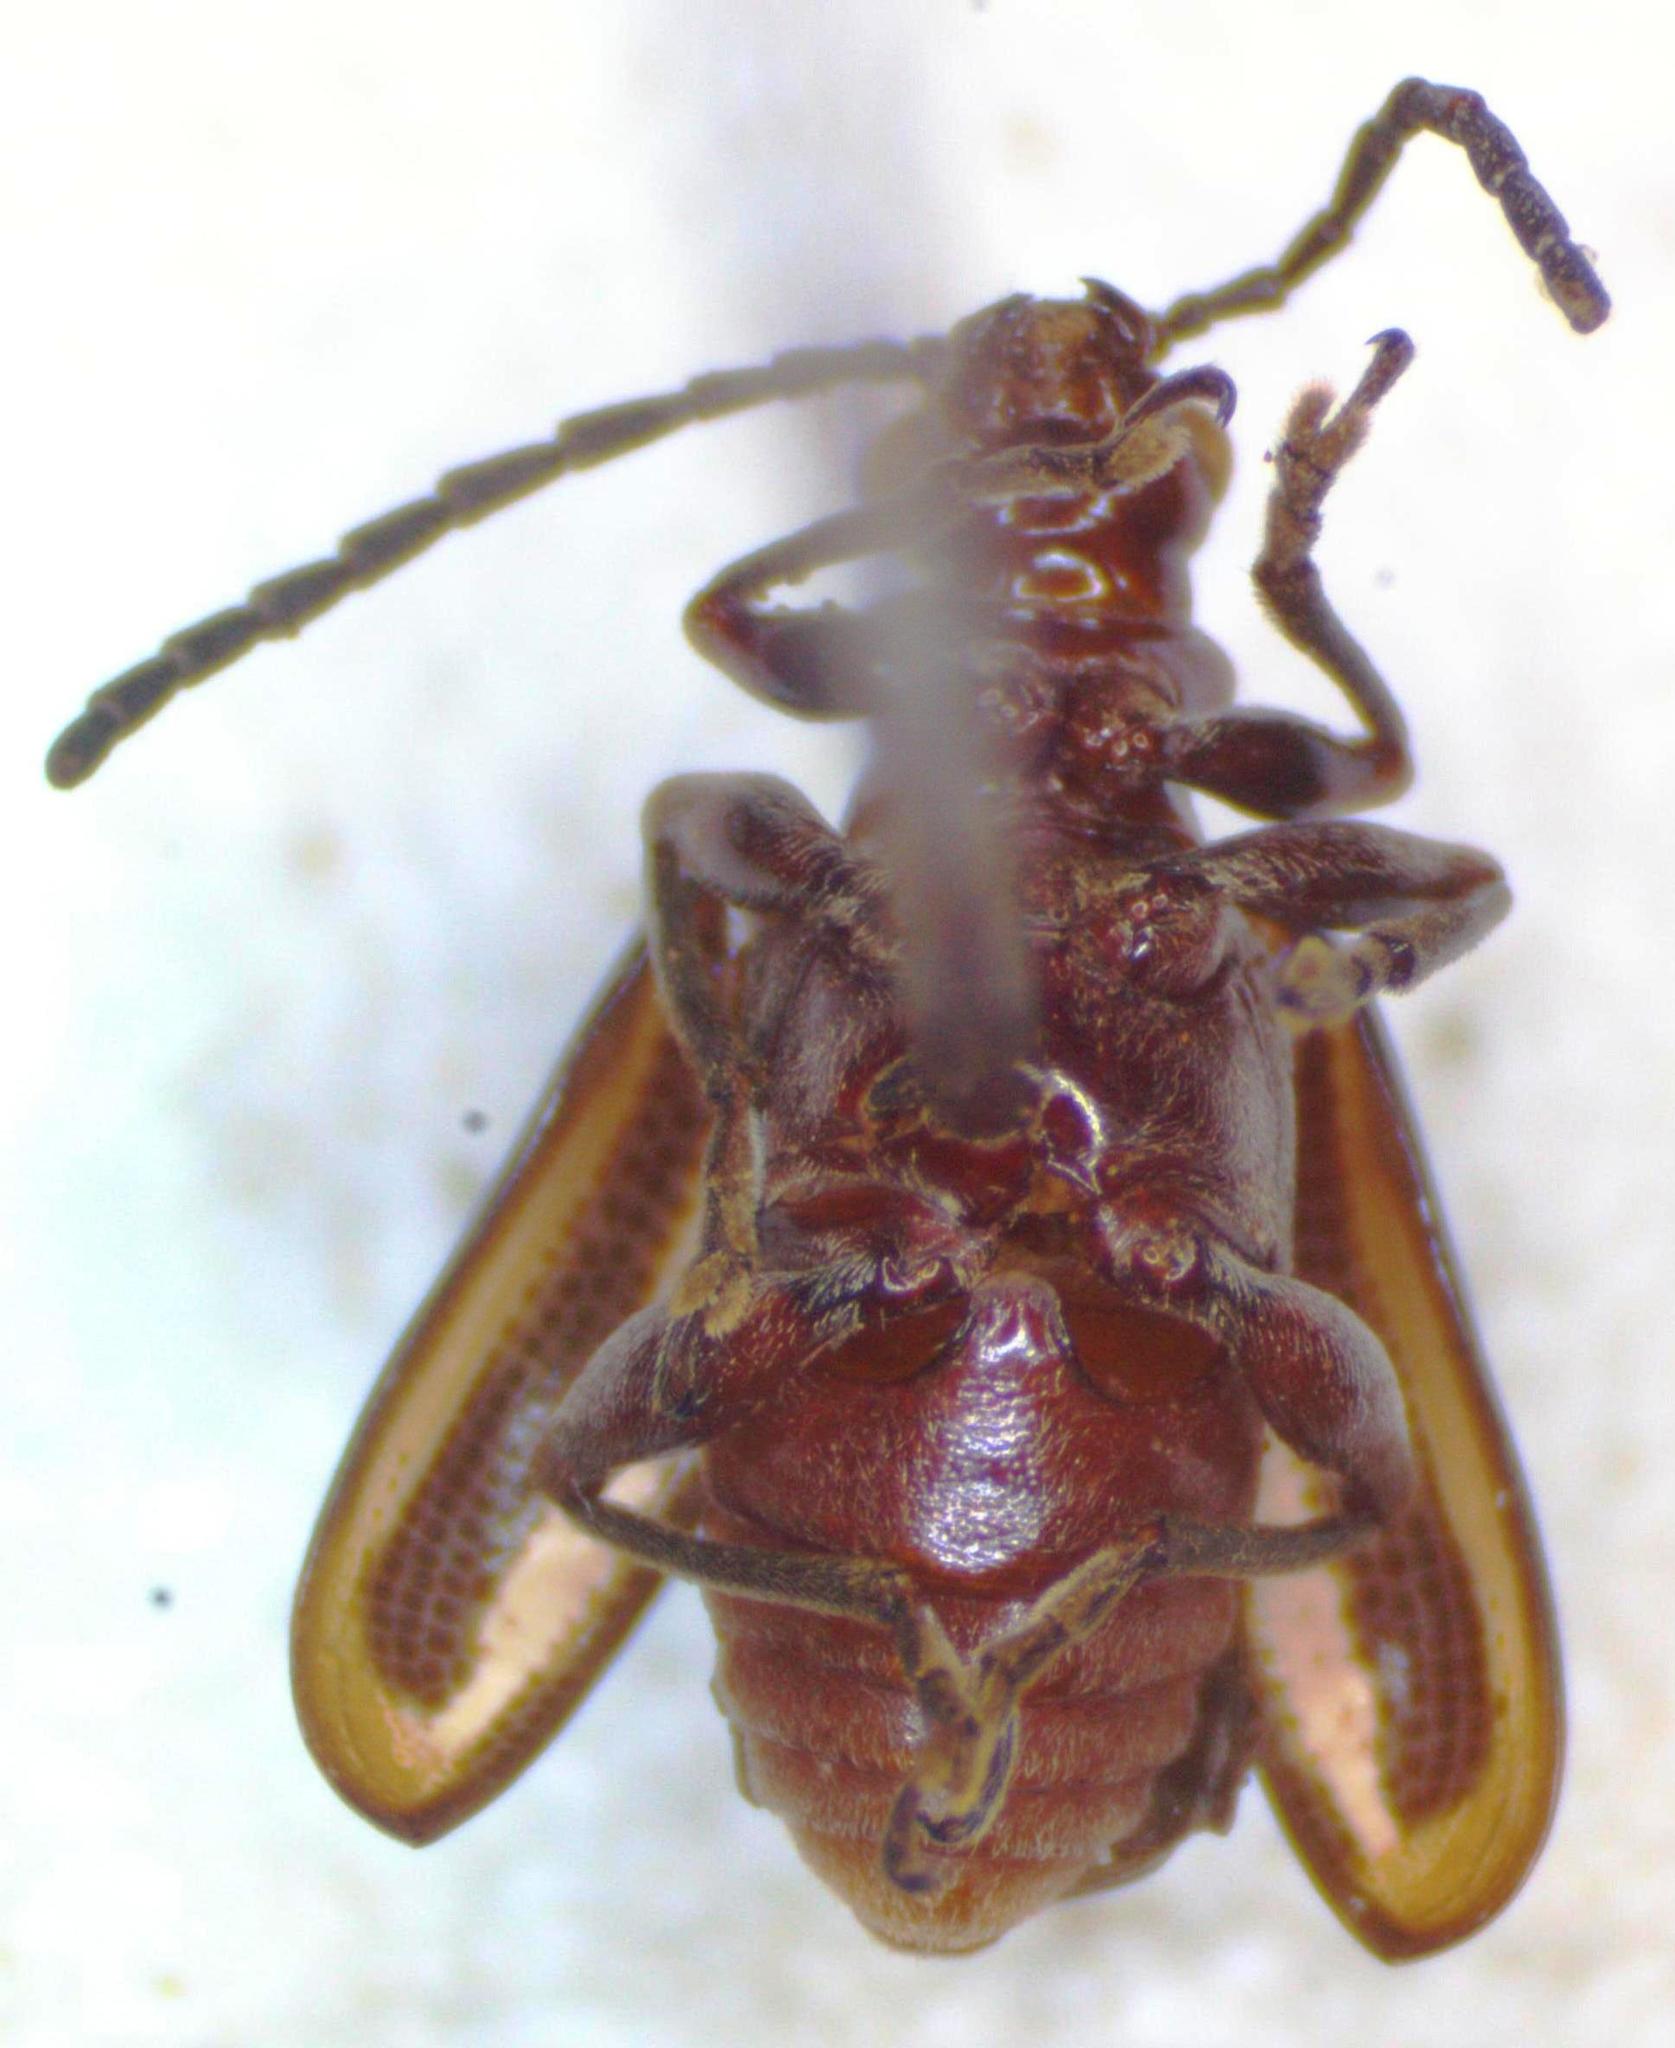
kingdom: Animalia
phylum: Arthropoda
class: Insecta
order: Coleoptera
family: Chrysomelidae
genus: Neolema
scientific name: Neolema
